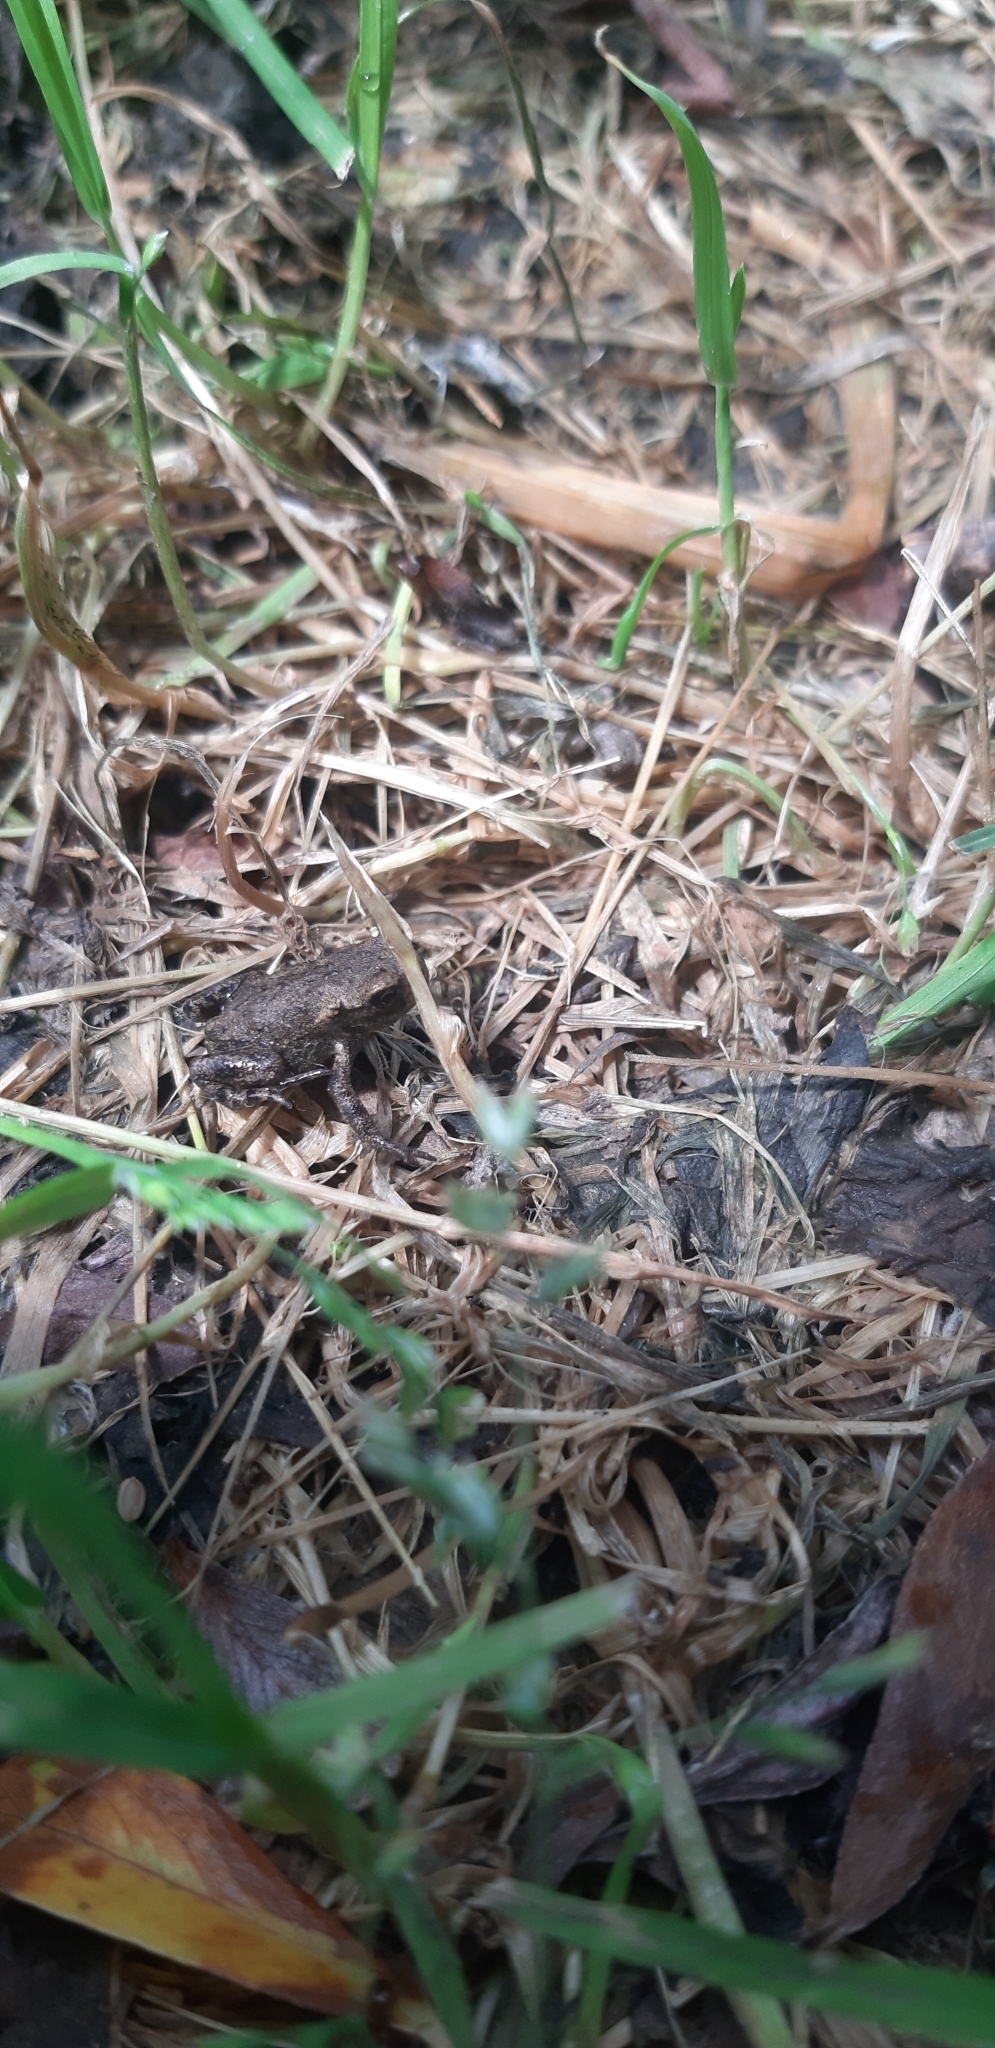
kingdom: Animalia
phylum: Chordata
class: Amphibia
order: Anura
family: Bufonidae
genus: Bufo
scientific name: Bufo bufo
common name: Common toad
